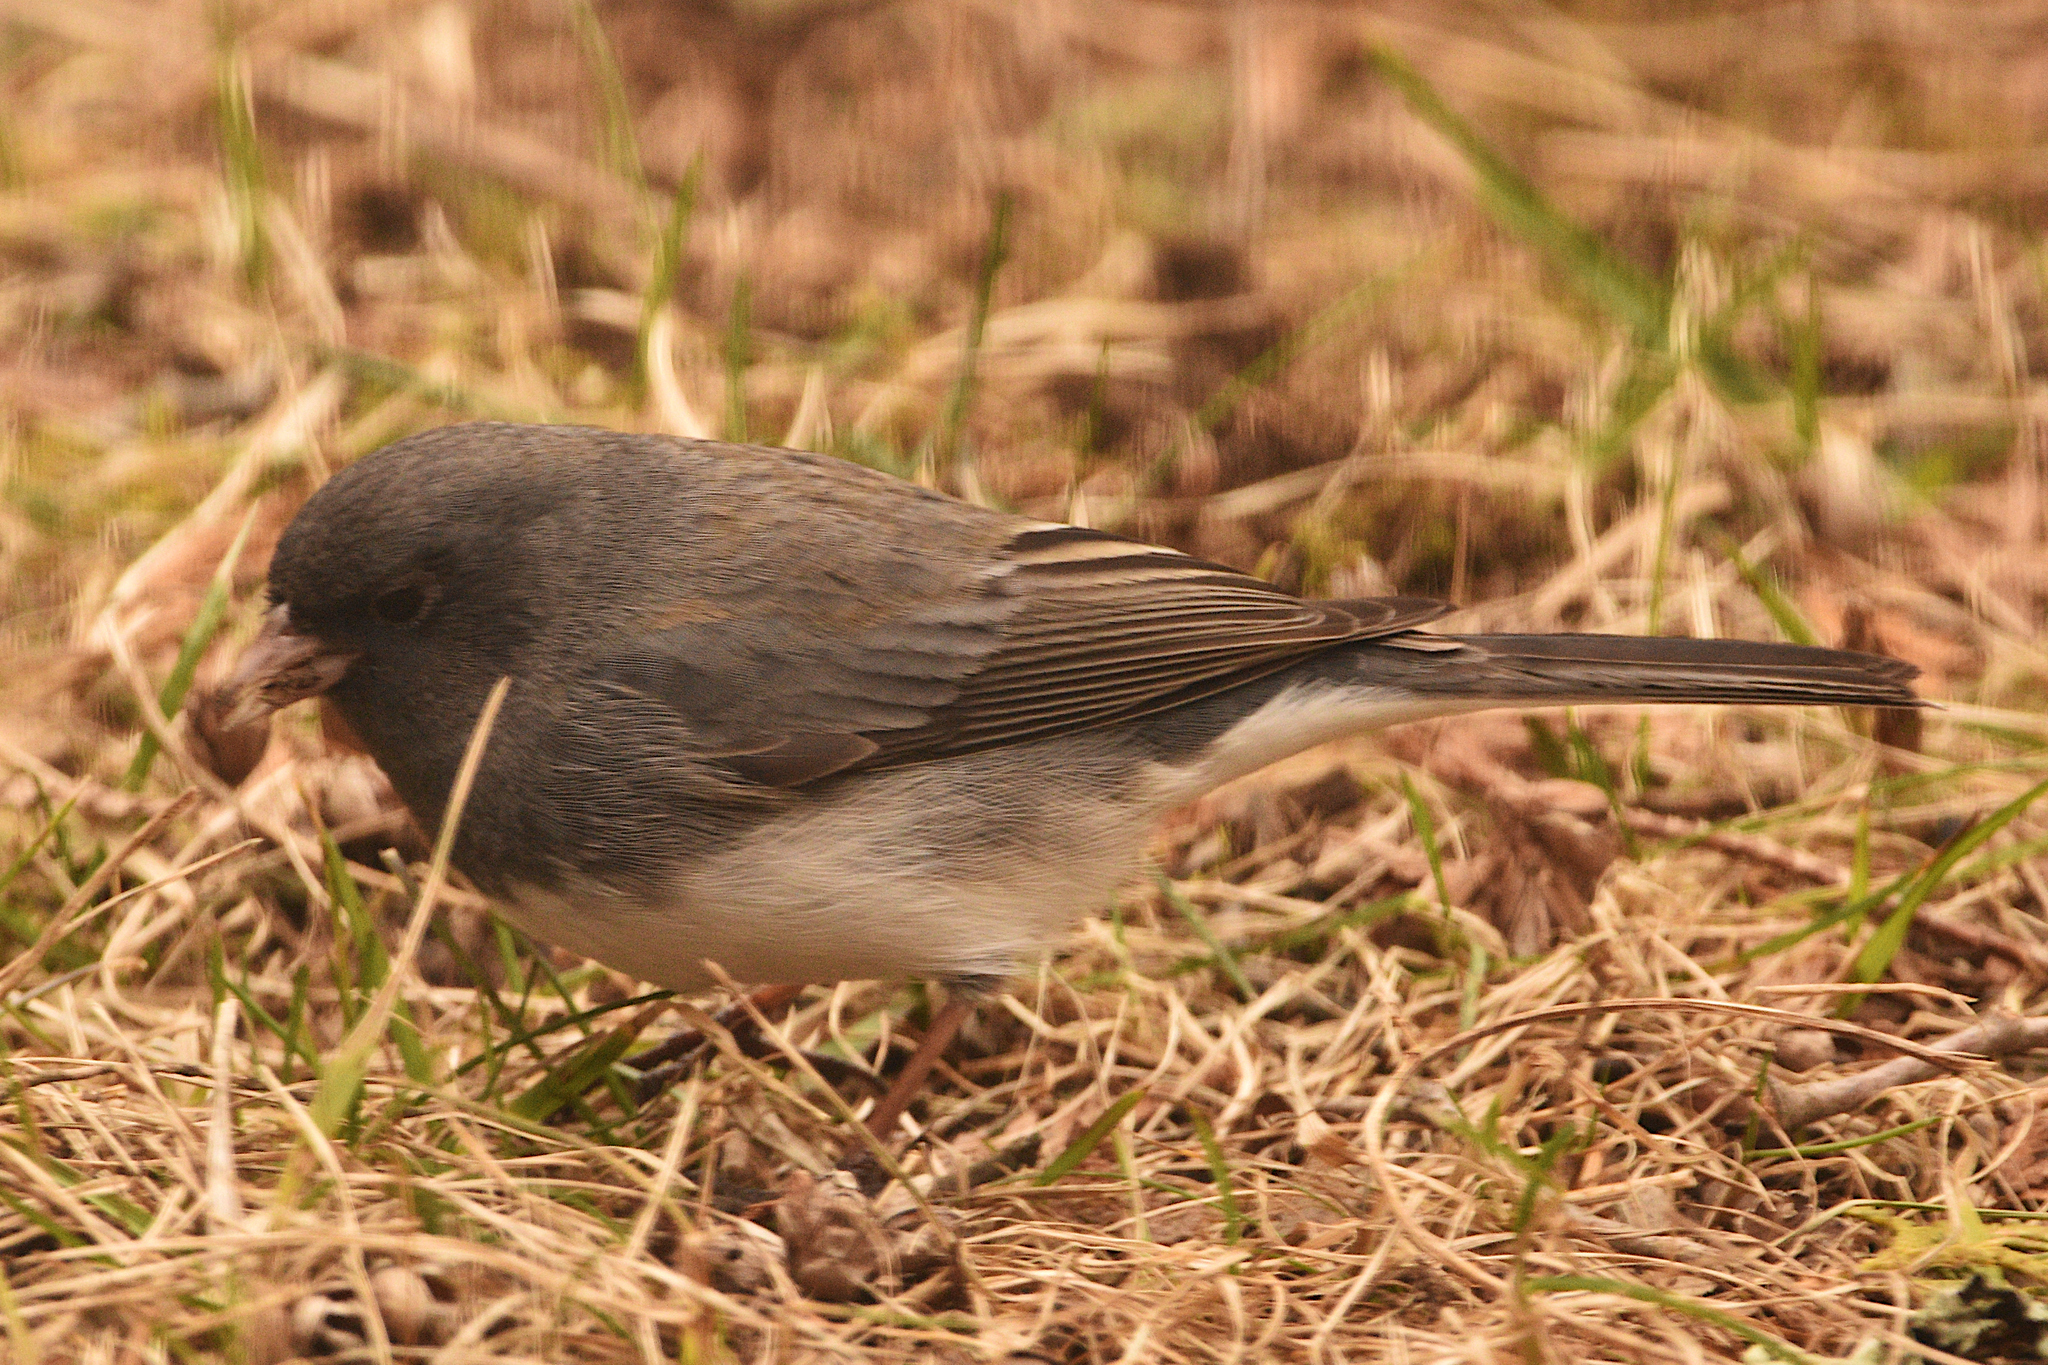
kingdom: Animalia
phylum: Chordata
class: Aves
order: Passeriformes
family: Passerellidae
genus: Junco
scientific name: Junco hyemalis
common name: Dark-eyed junco
